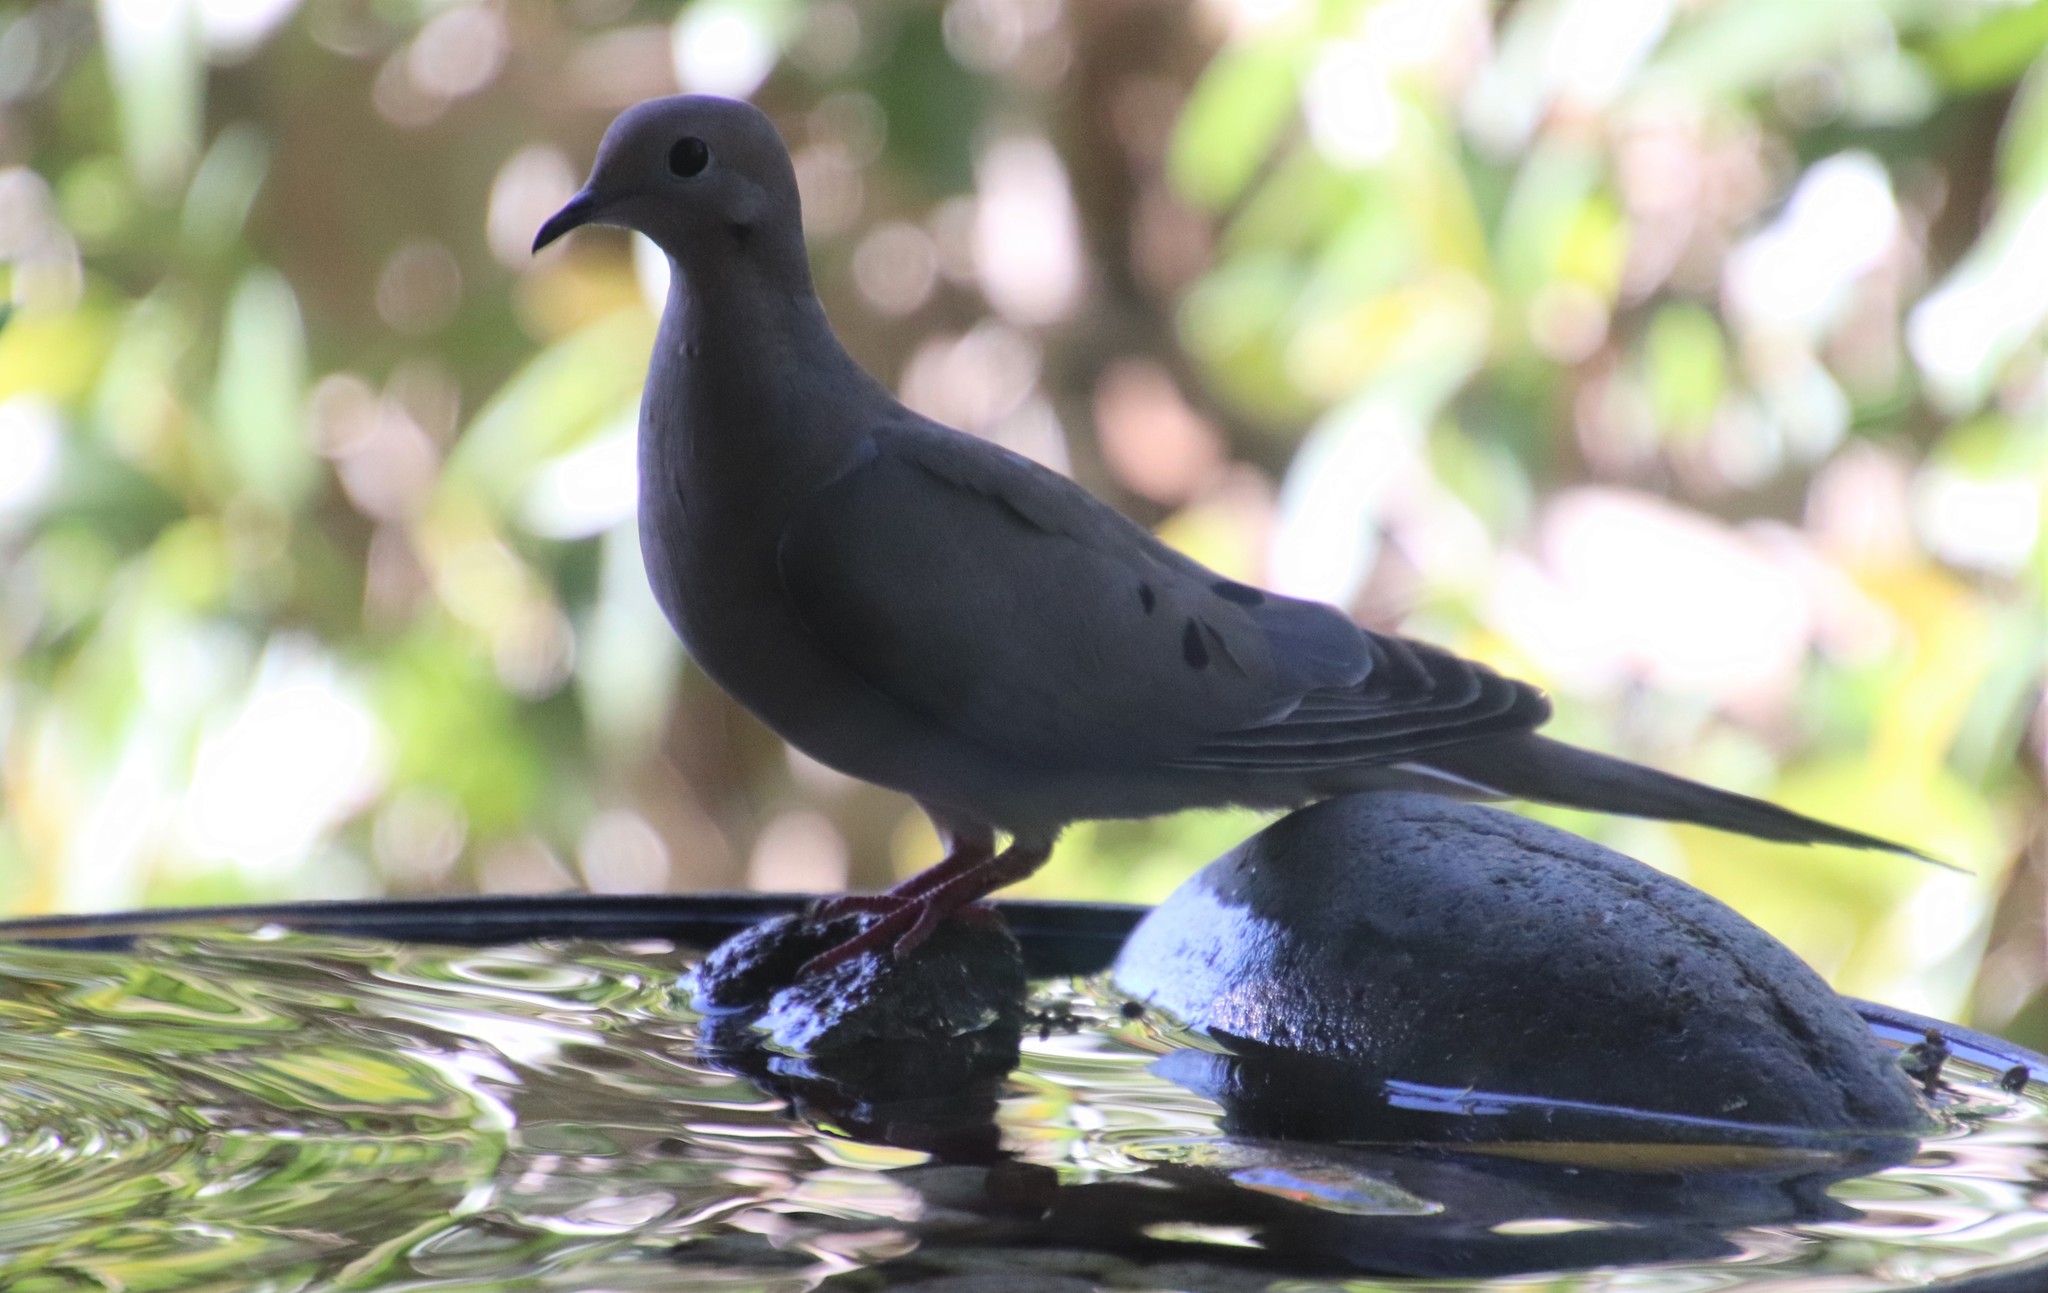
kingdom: Animalia
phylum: Chordata
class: Aves
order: Columbiformes
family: Columbidae
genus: Zenaida
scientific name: Zenaida macroura
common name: Mourning dove
